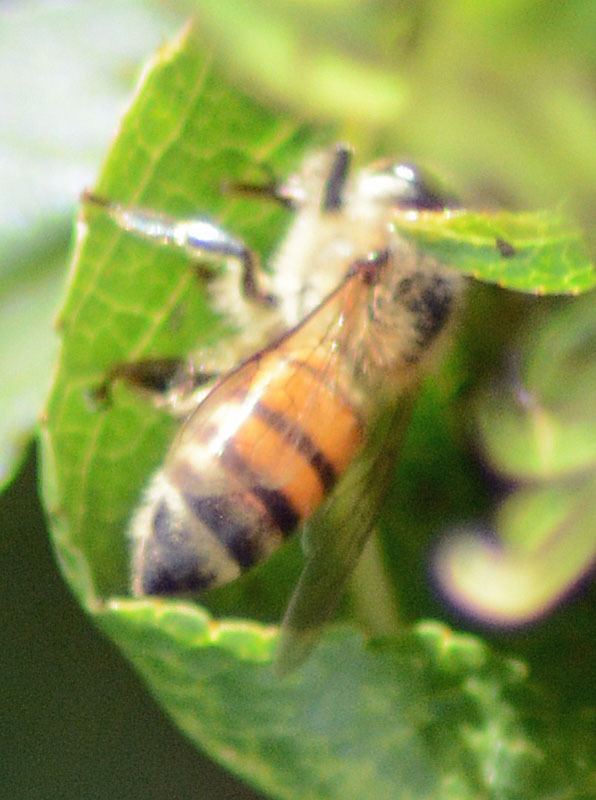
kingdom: Animalia
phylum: Arthropoda
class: Insecta
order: Hymenoptera
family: Apidae
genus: Apis
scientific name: Apis mellifera
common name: Honey bee
